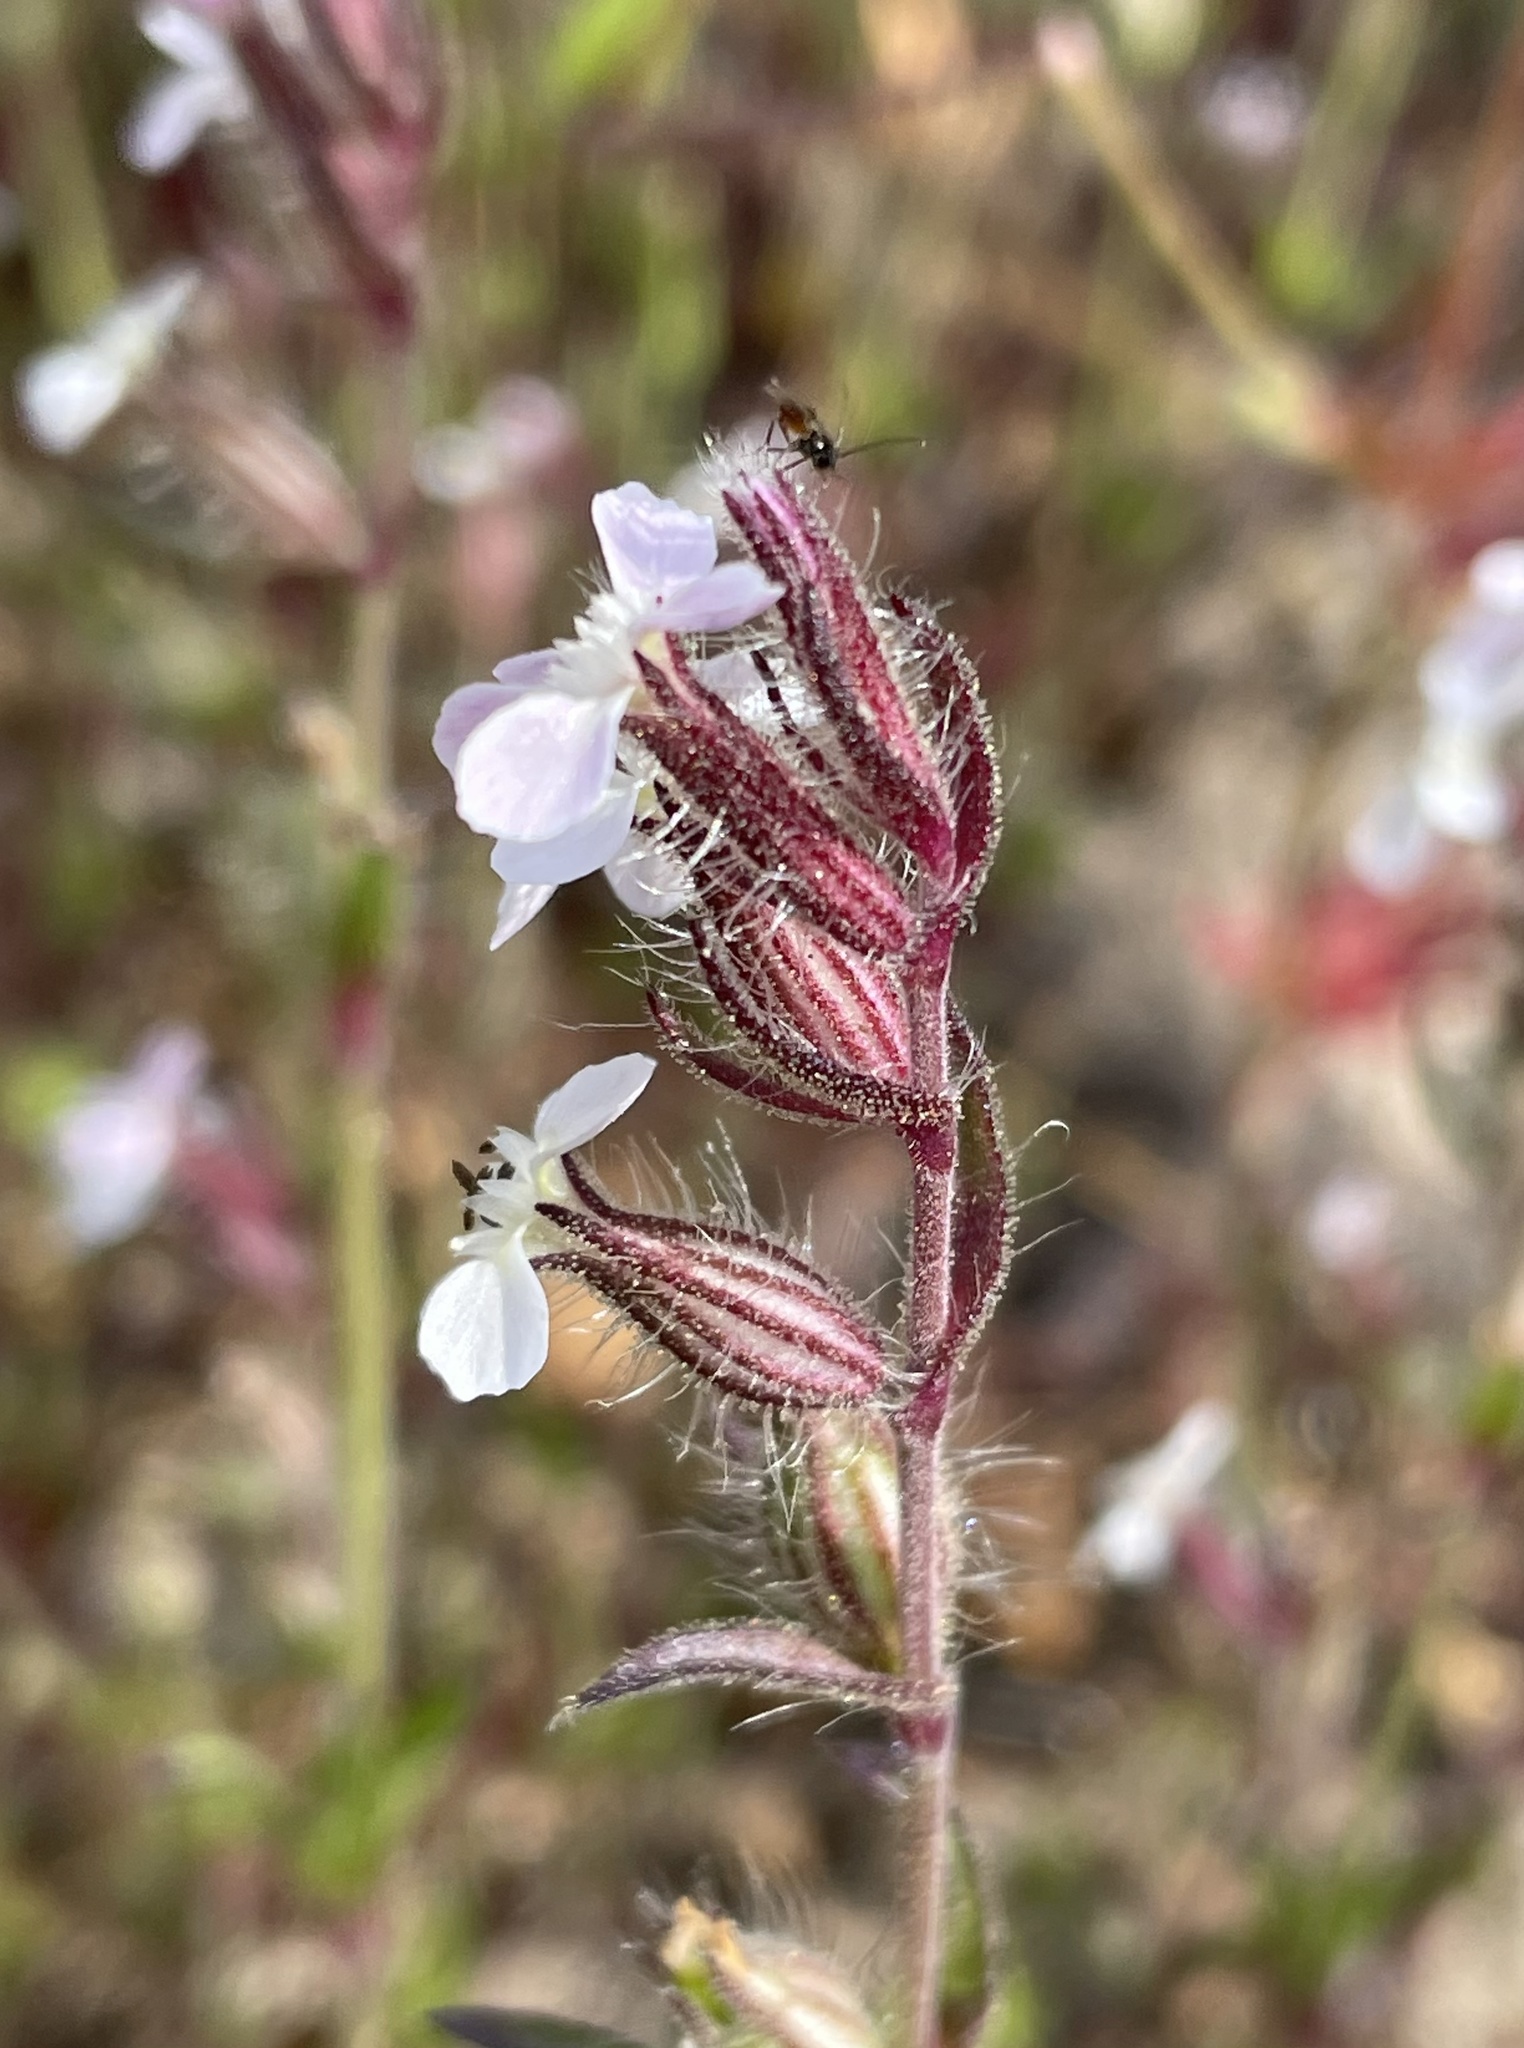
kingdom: Plantae
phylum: Tracheophyta
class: Magnoliopsida
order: Caryophyllales
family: Caryophyllaceae
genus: Silene
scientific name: Silene gallica
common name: Small-flowered catchfly
